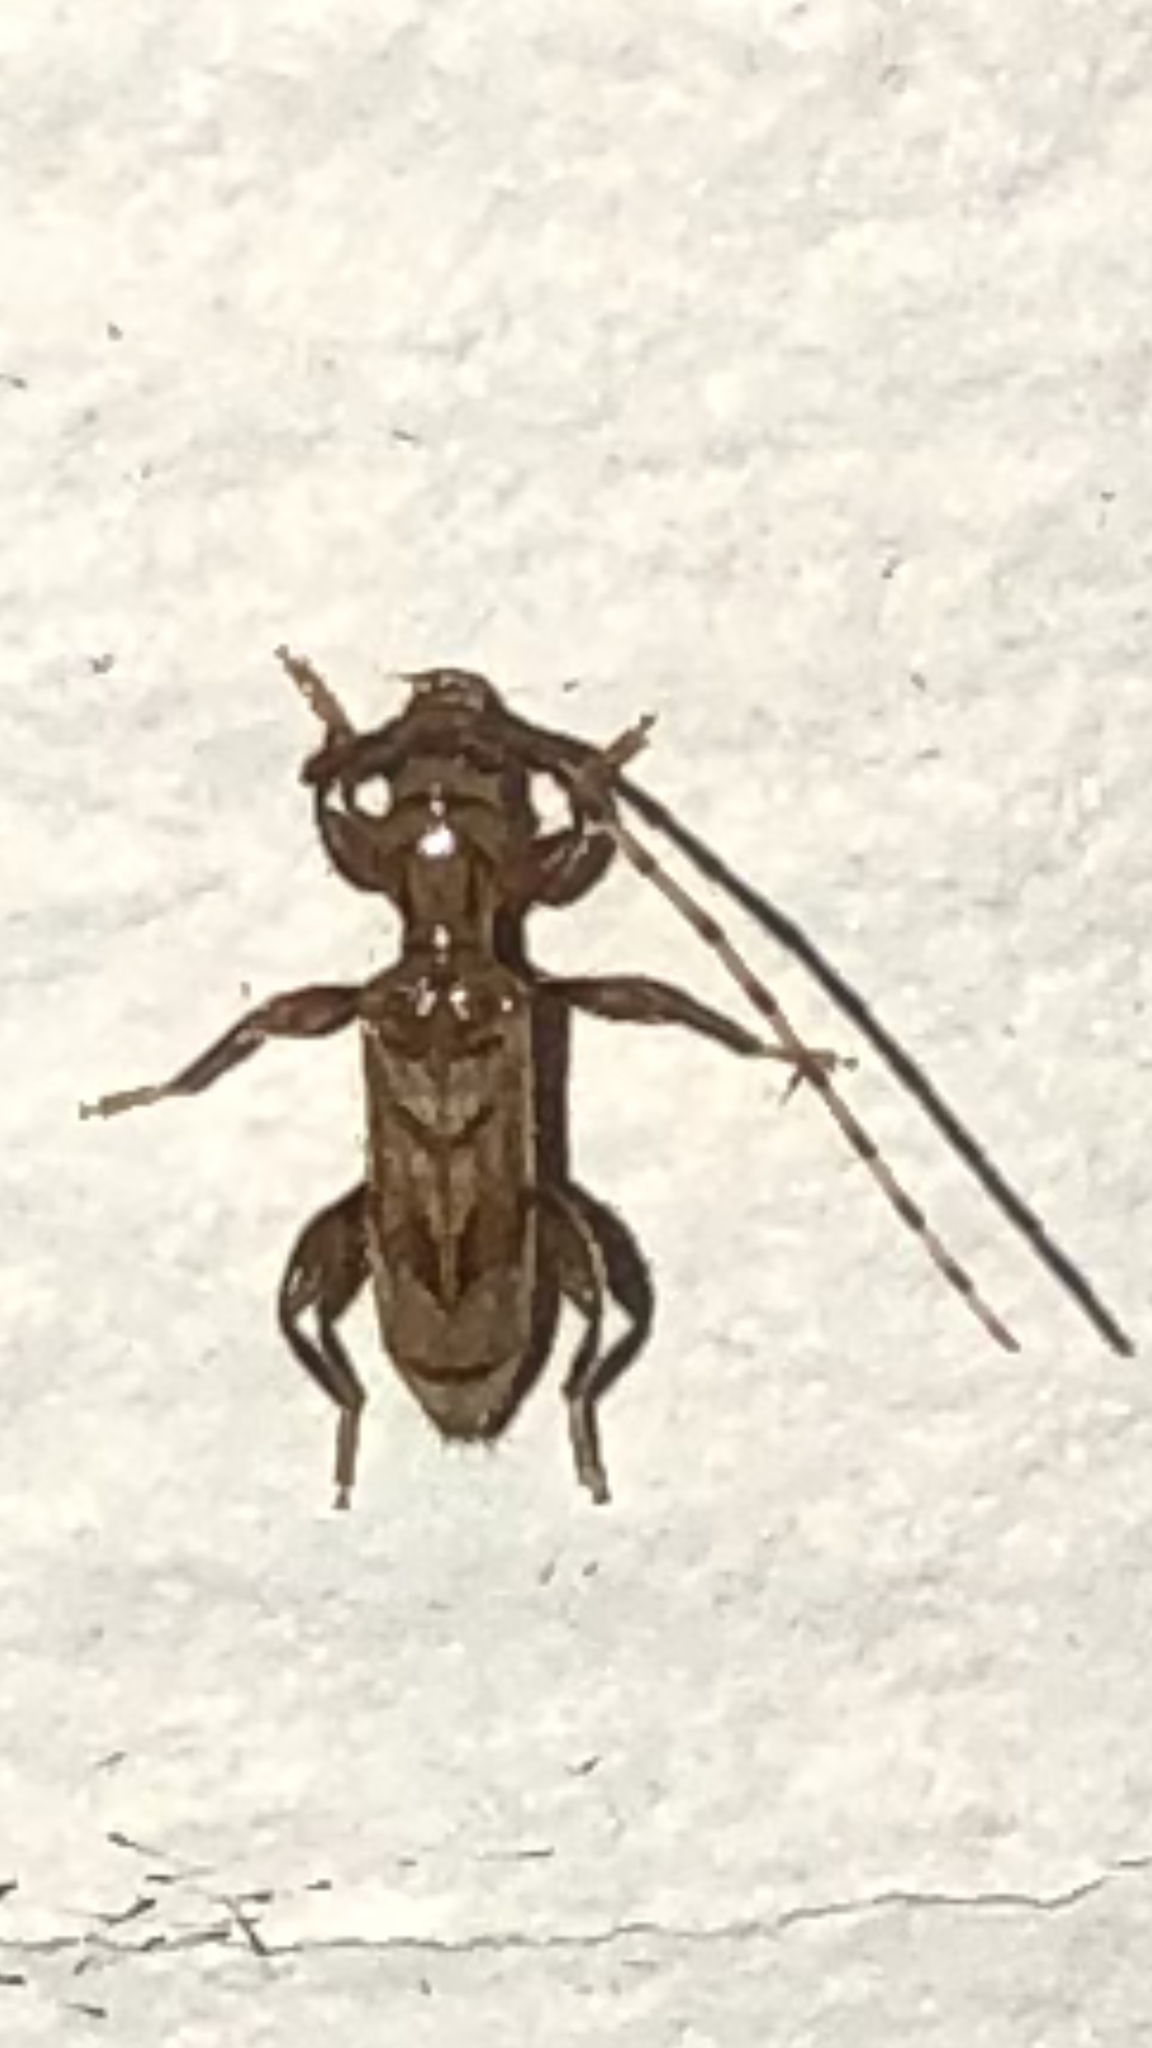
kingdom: Animalia
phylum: Arthropoda
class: Insecta
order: Coleoptera
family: Cerambycidae
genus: Obrium
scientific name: Obrium maculatum
